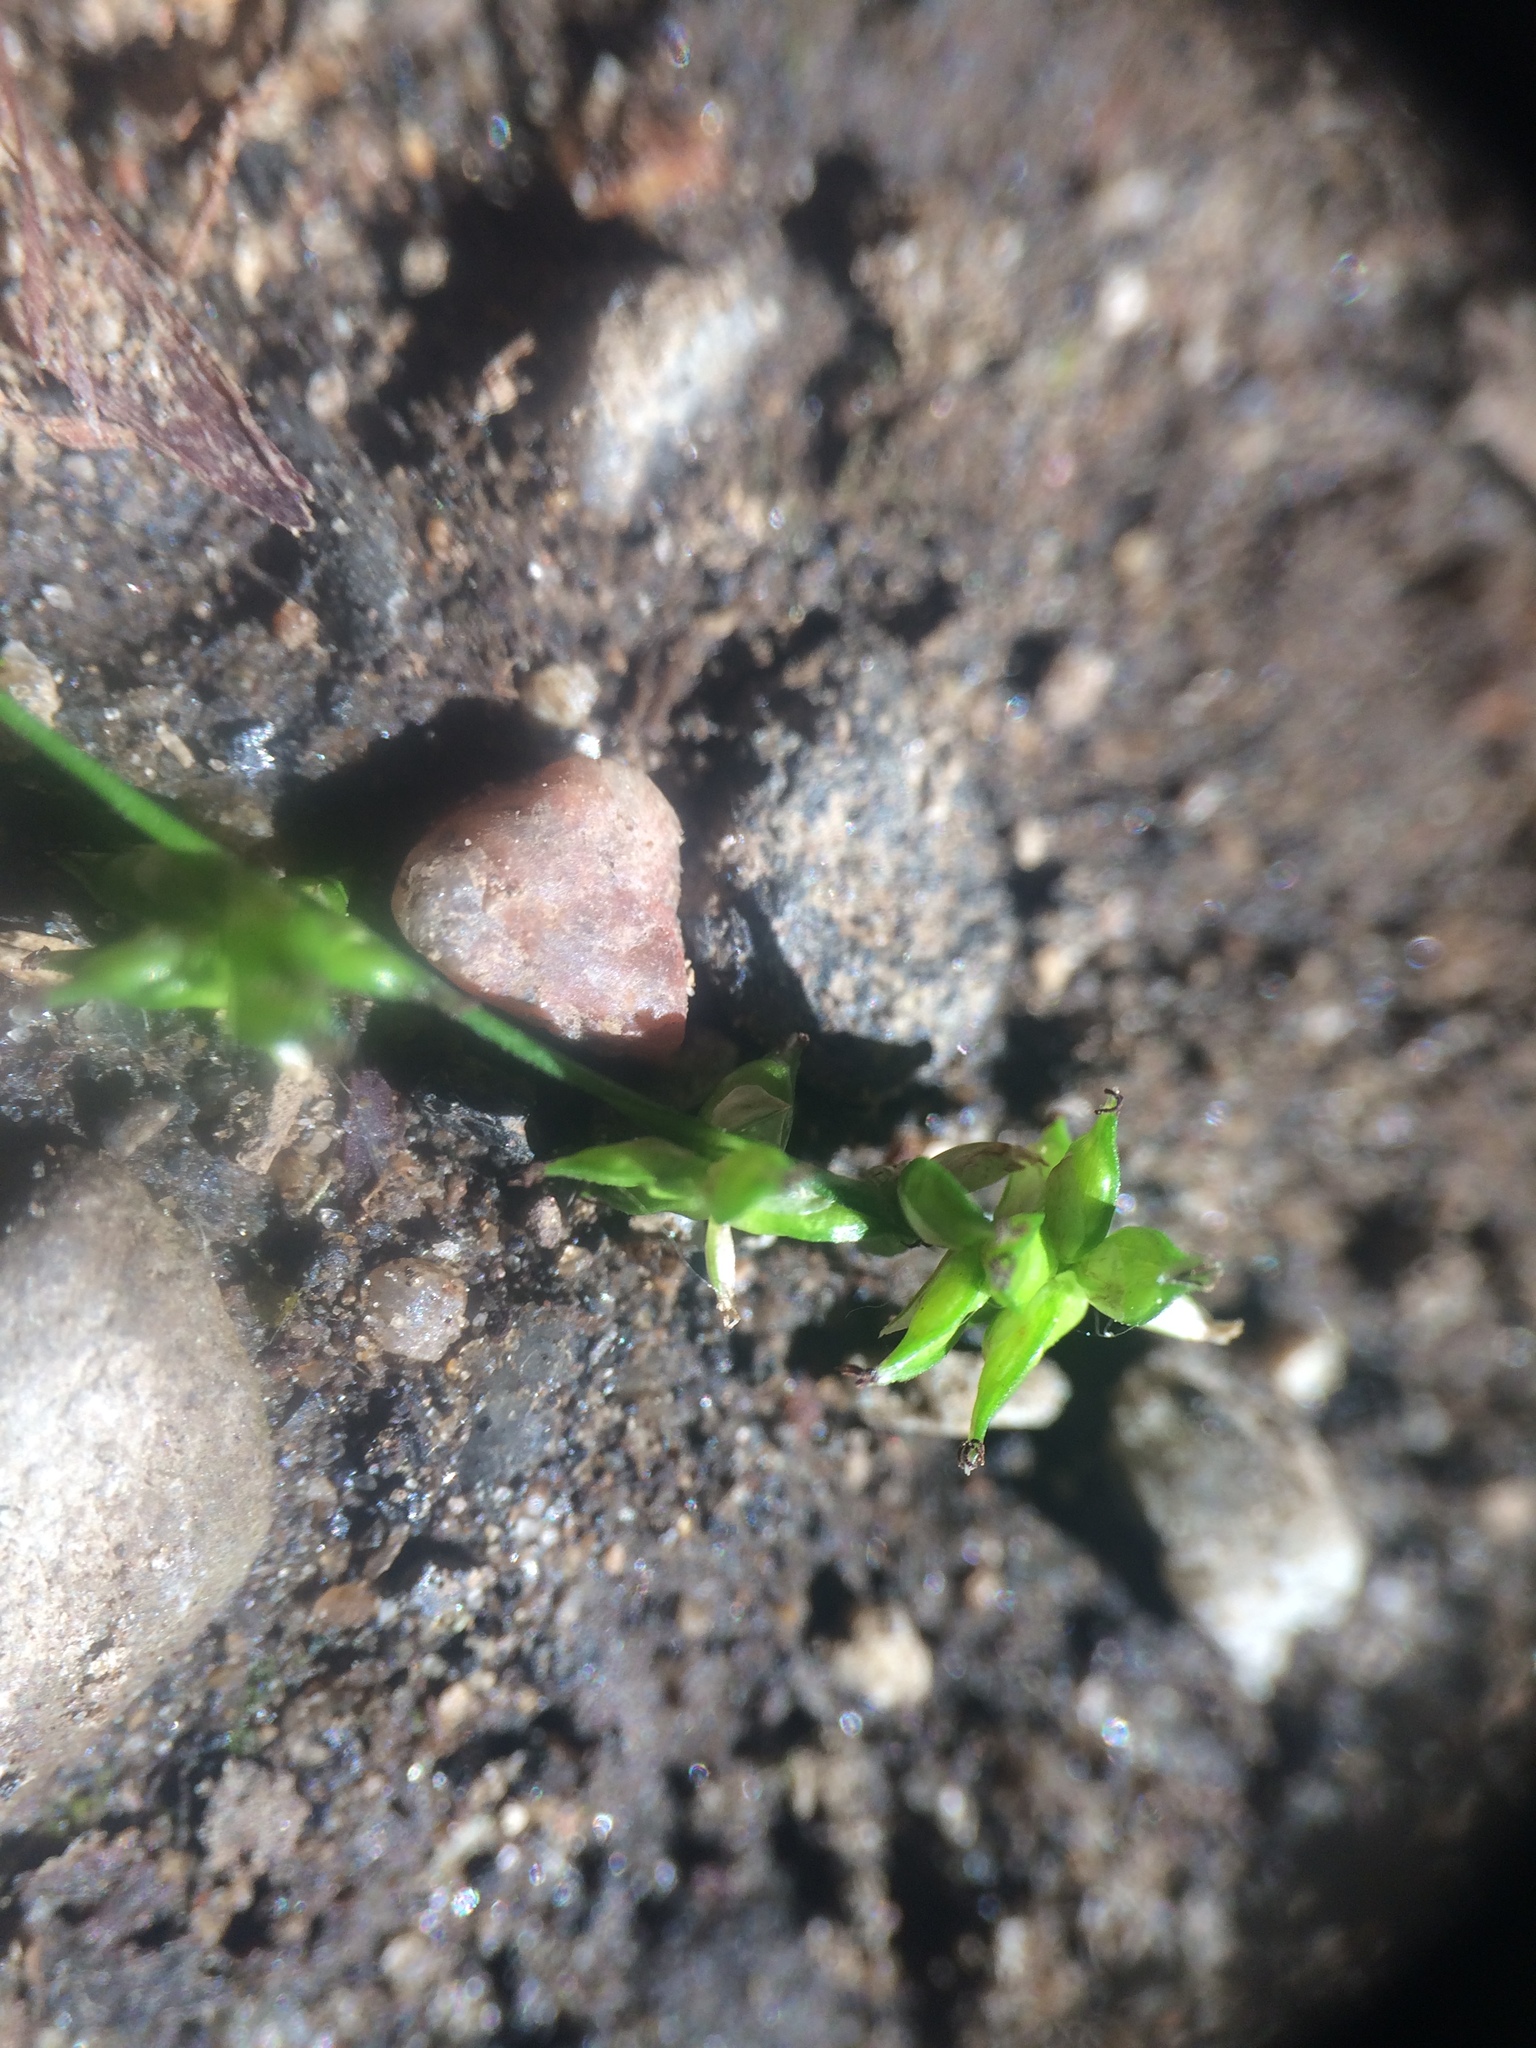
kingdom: Plantae
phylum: Tracheophyta
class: Liliopsida
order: Poales
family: Cyperaceae
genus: Carex
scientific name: Carex rosea
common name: Curly-styled wood sedge
